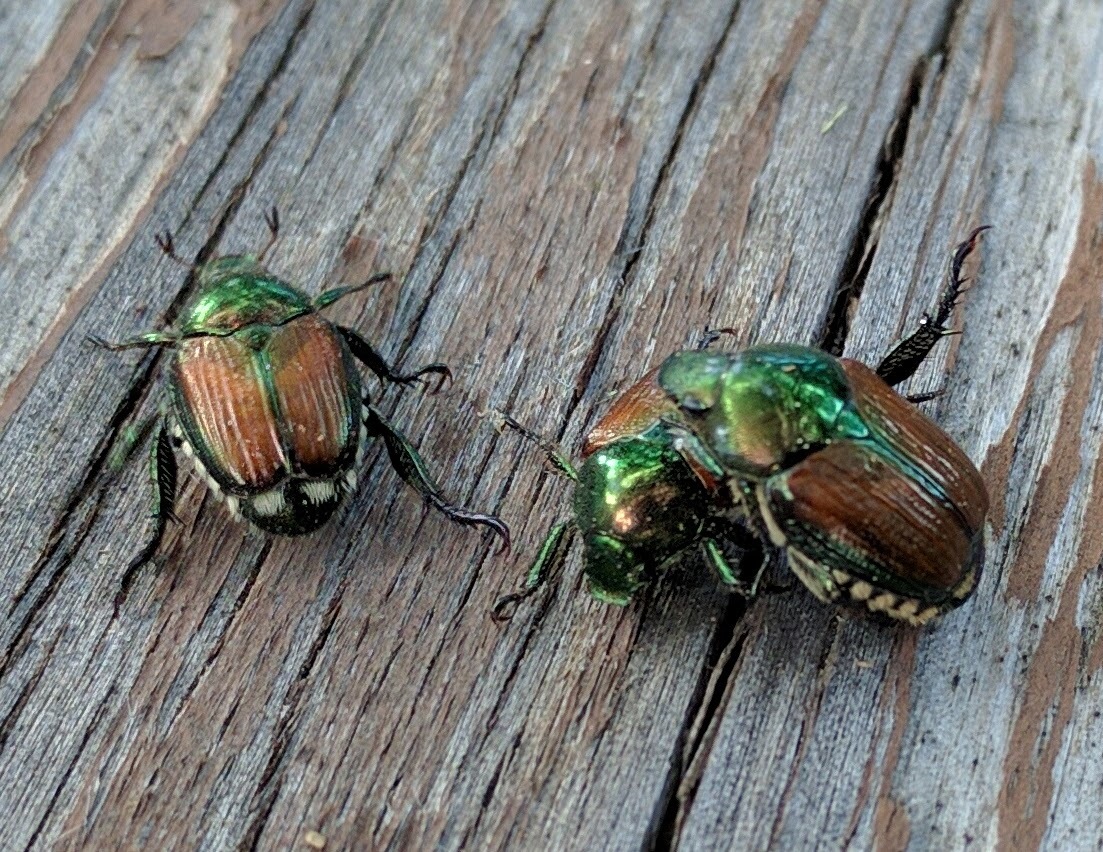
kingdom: Animalia
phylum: Arthropoda
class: Insecta
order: Coleoptera
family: Scarabaeidae
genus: Popillia
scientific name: Popillia japonica
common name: Japanese beetle
